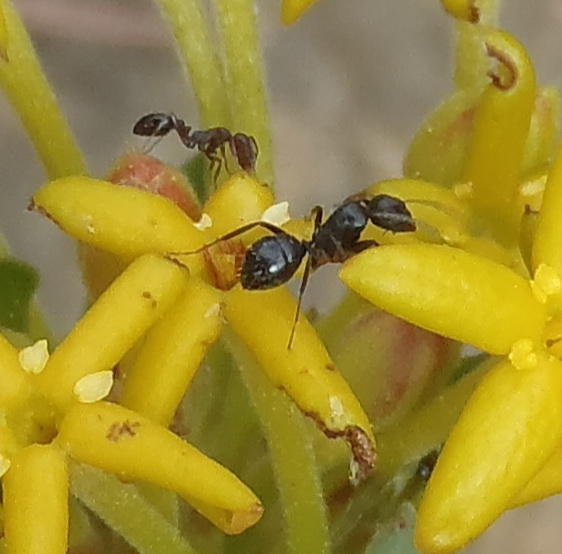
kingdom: Animalia
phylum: Arthropoda
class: Insecta
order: Hymenoptera
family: Formicidae
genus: Camponotus
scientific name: Camponotus werthi
